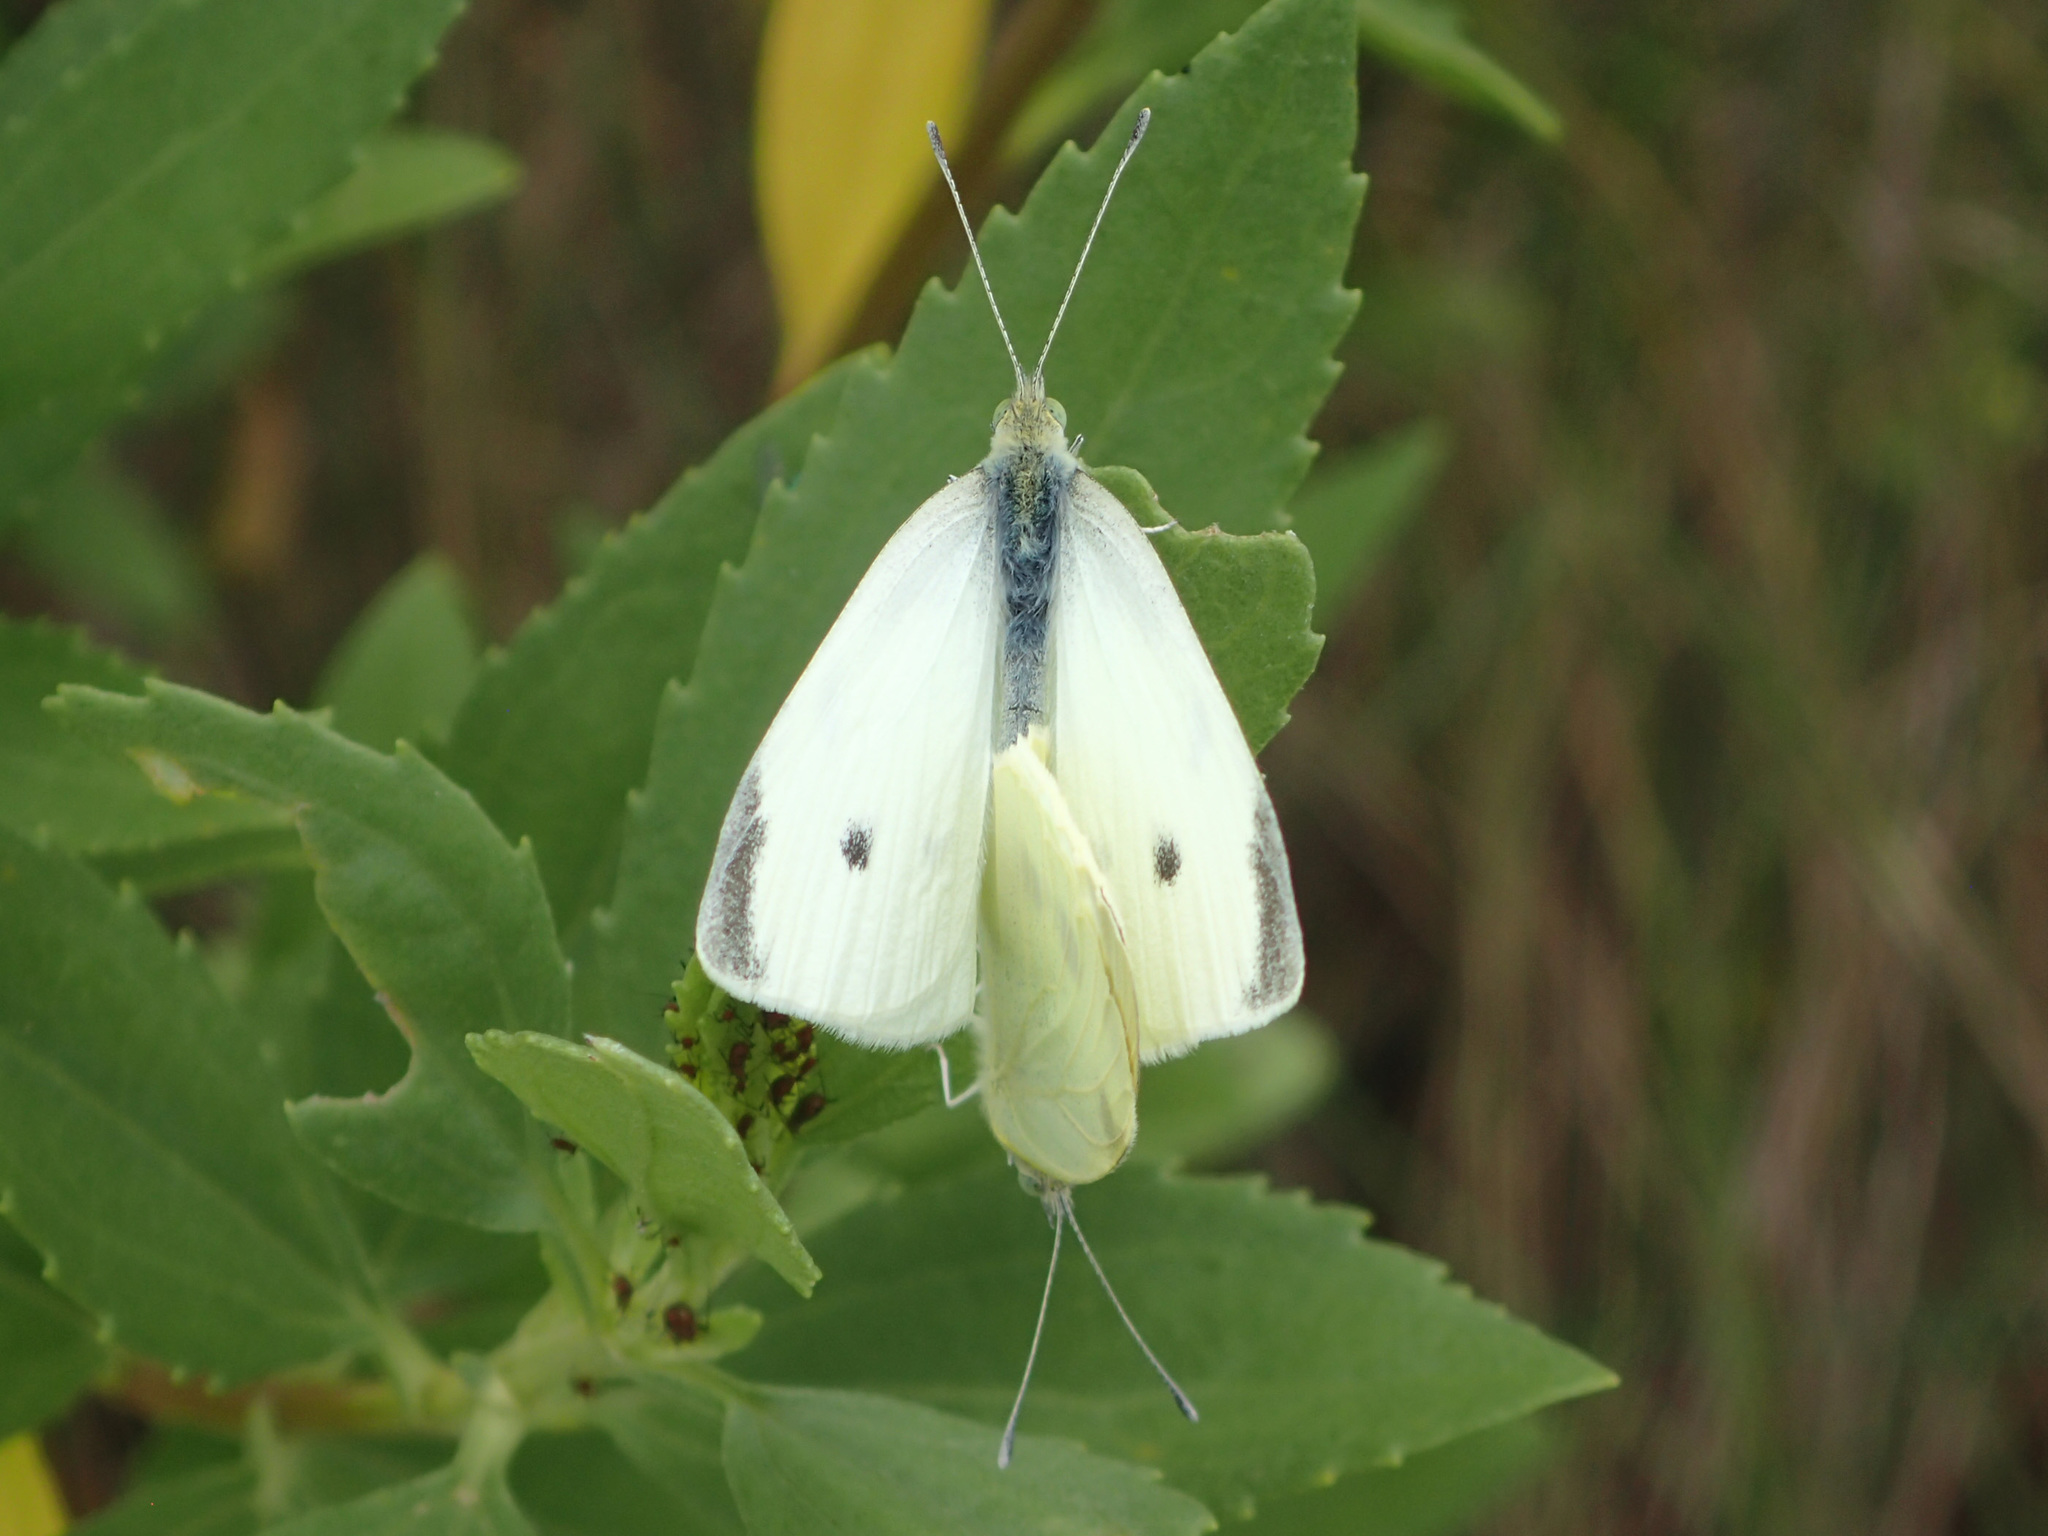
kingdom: Animalia
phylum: Arthropoda
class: Insecta
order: Lepidoptera
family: Pieridae
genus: Pieris
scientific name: Pieris rapae
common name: Small white
